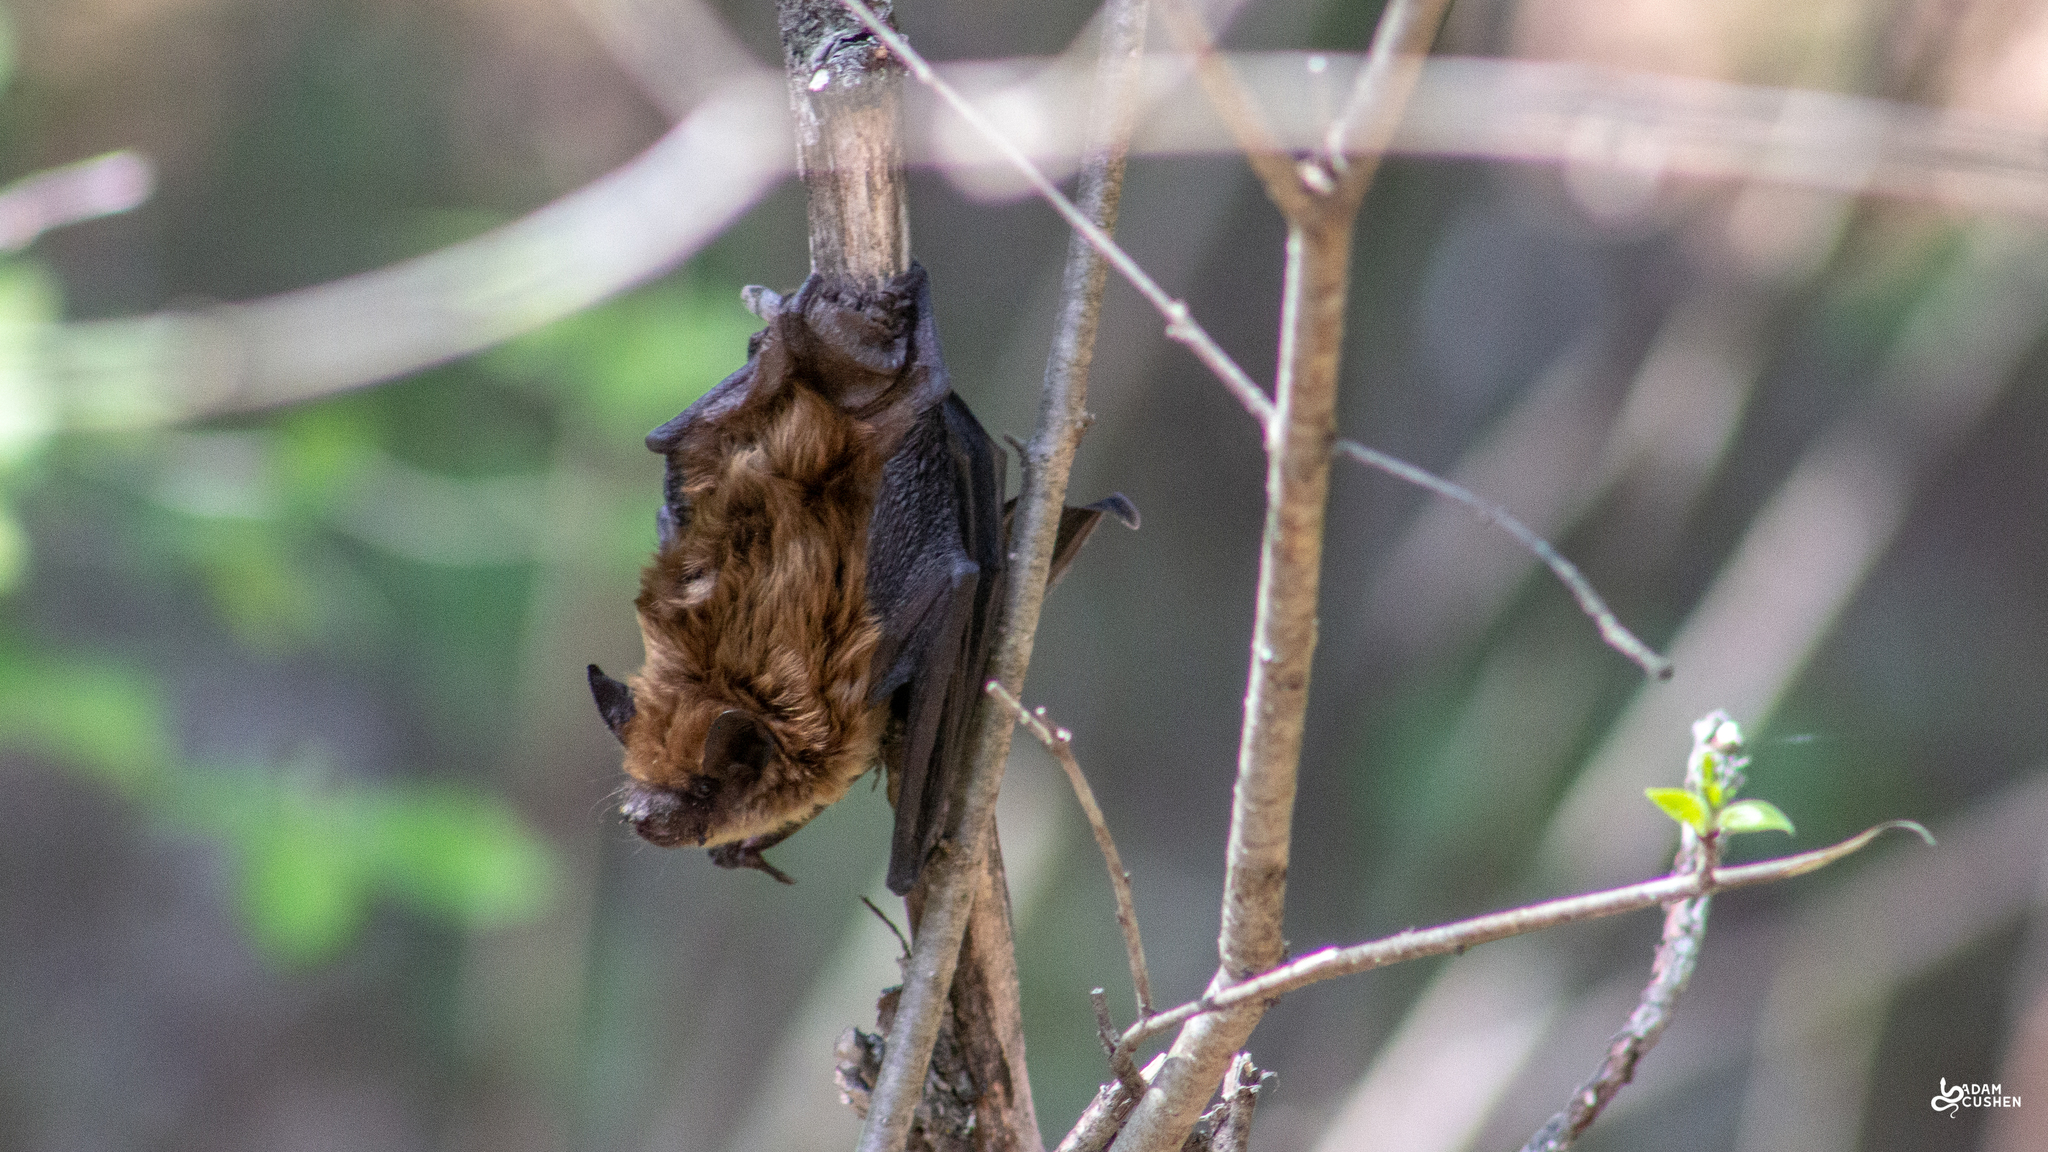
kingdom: Animalia
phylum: Chordata
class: Mammalia
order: Chiroptera
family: Vespertilionidae
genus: Eptesicus
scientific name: Eptesicus fuscus
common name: Big brown bat
